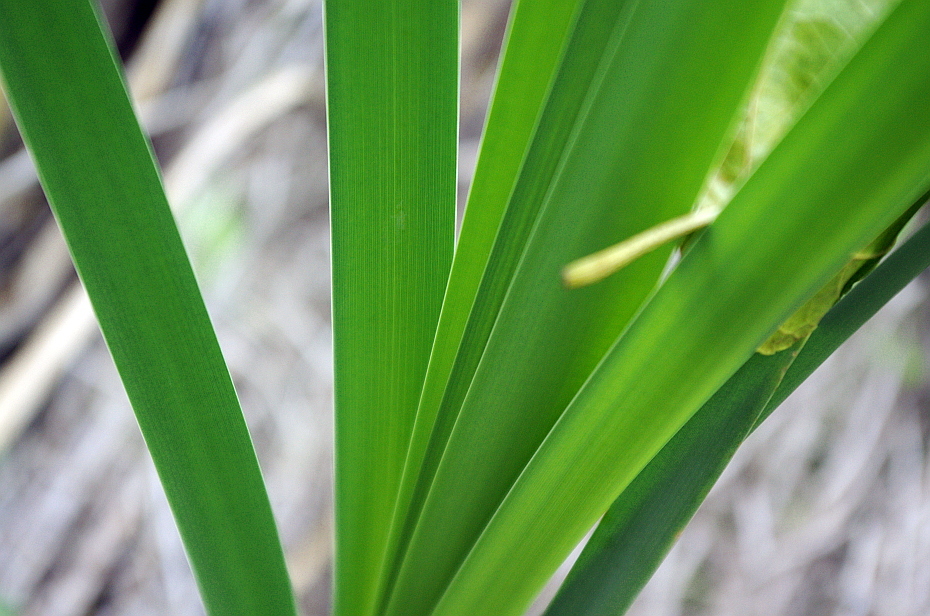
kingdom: Plantae
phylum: Tracheophyta
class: Liliopsida
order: Poales
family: Typhaceae
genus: Typha
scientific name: Typha latifolia
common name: Broadleaf cattail
